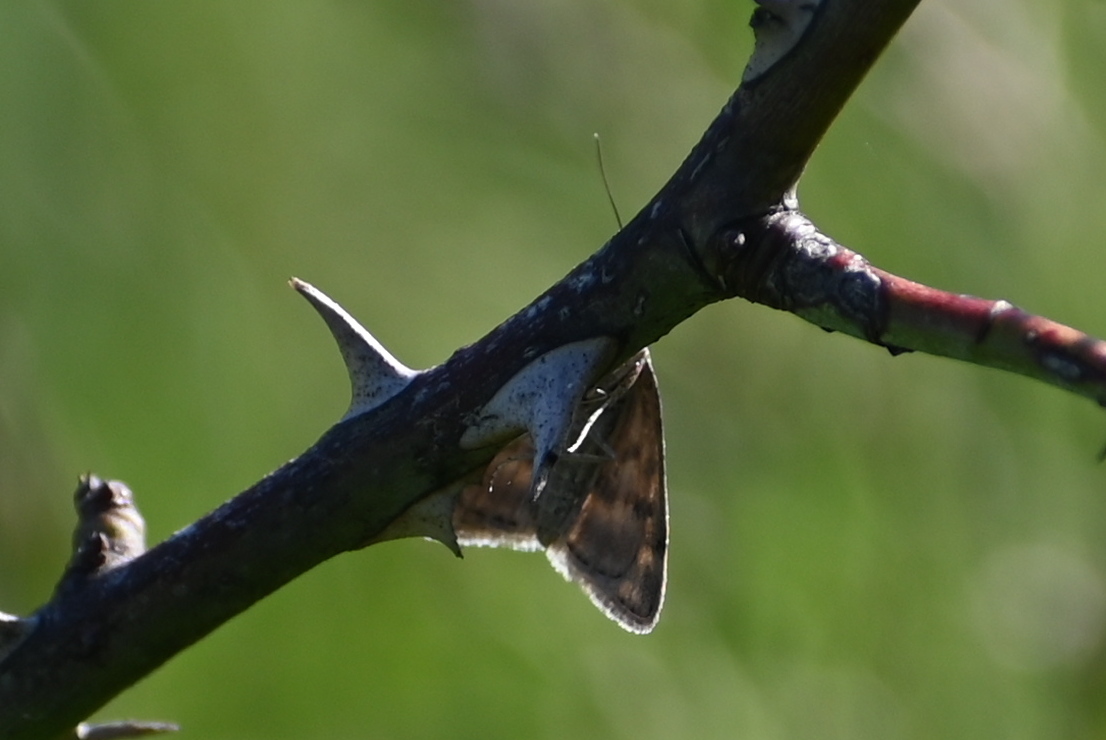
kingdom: Animalia
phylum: Arthropoda
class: Insecta
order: Lepidoptera
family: Crambidae
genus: Pyrausta
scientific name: Pyrausta despicata
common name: Straw-barred pearl
